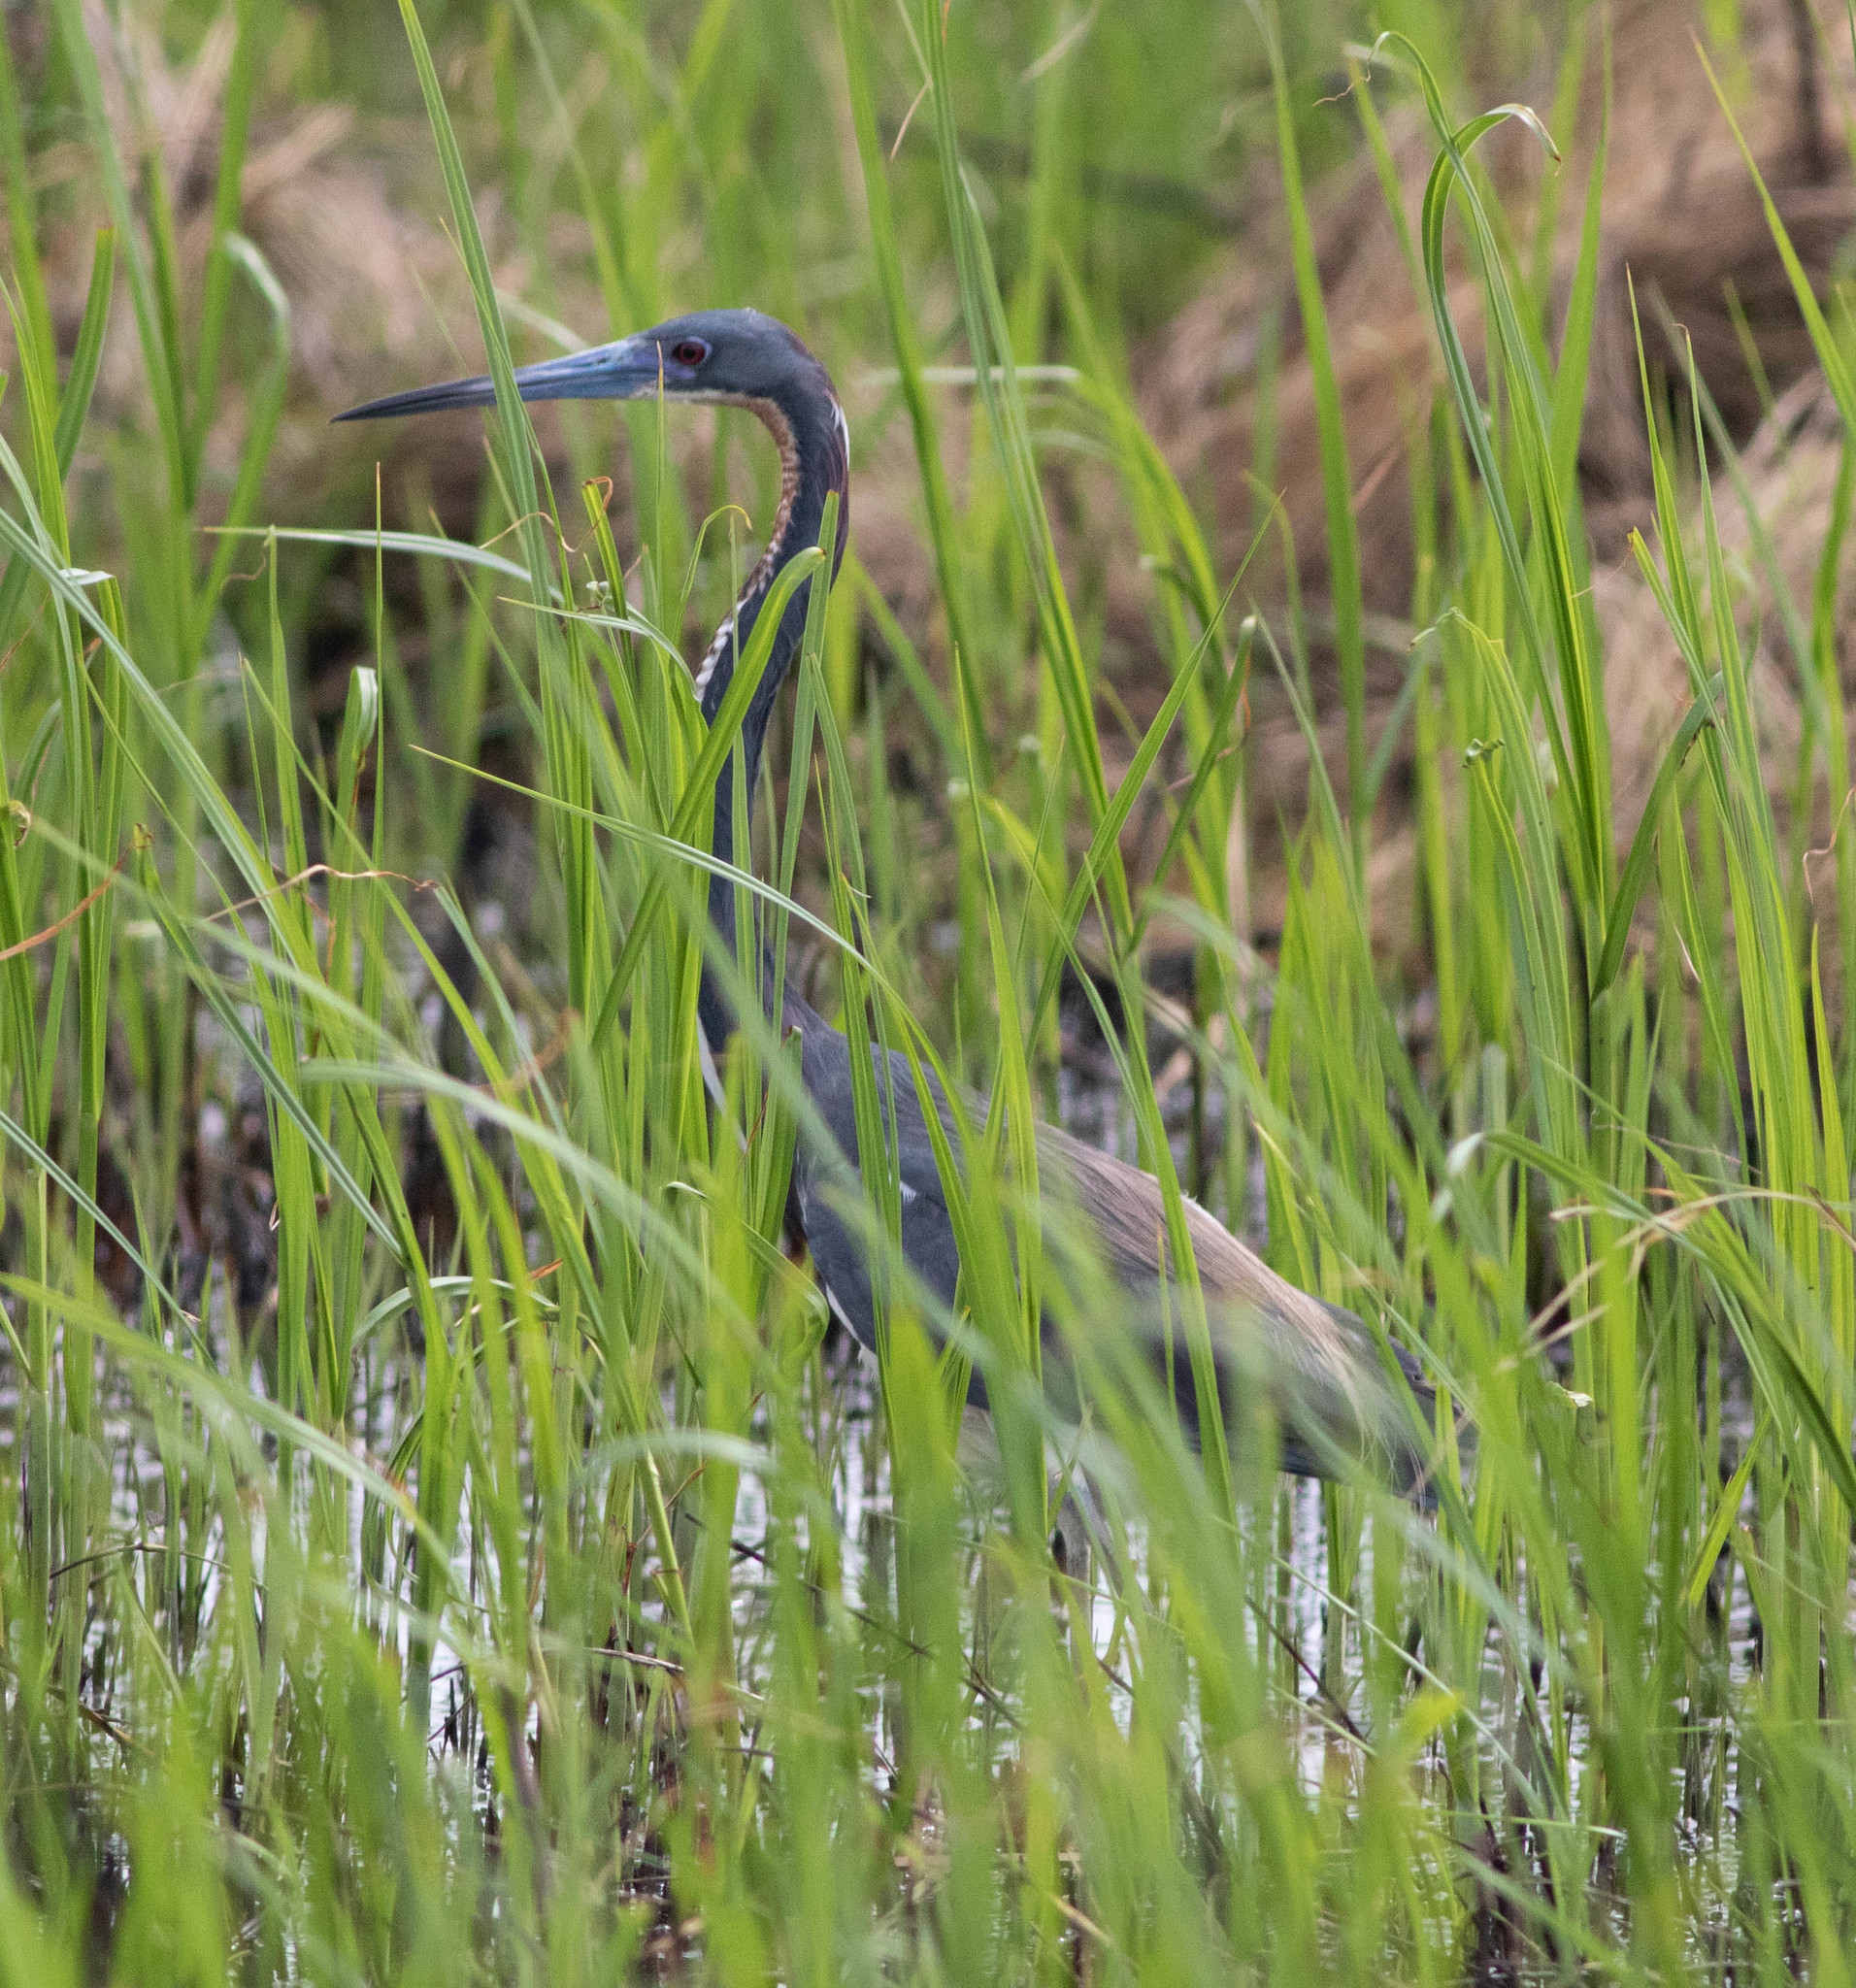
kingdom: Animalia
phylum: Chordata
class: Aves
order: Pelecaniformes
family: Ardeidae
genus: Egretta
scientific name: Egretta tricolor
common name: Tricolored heron
